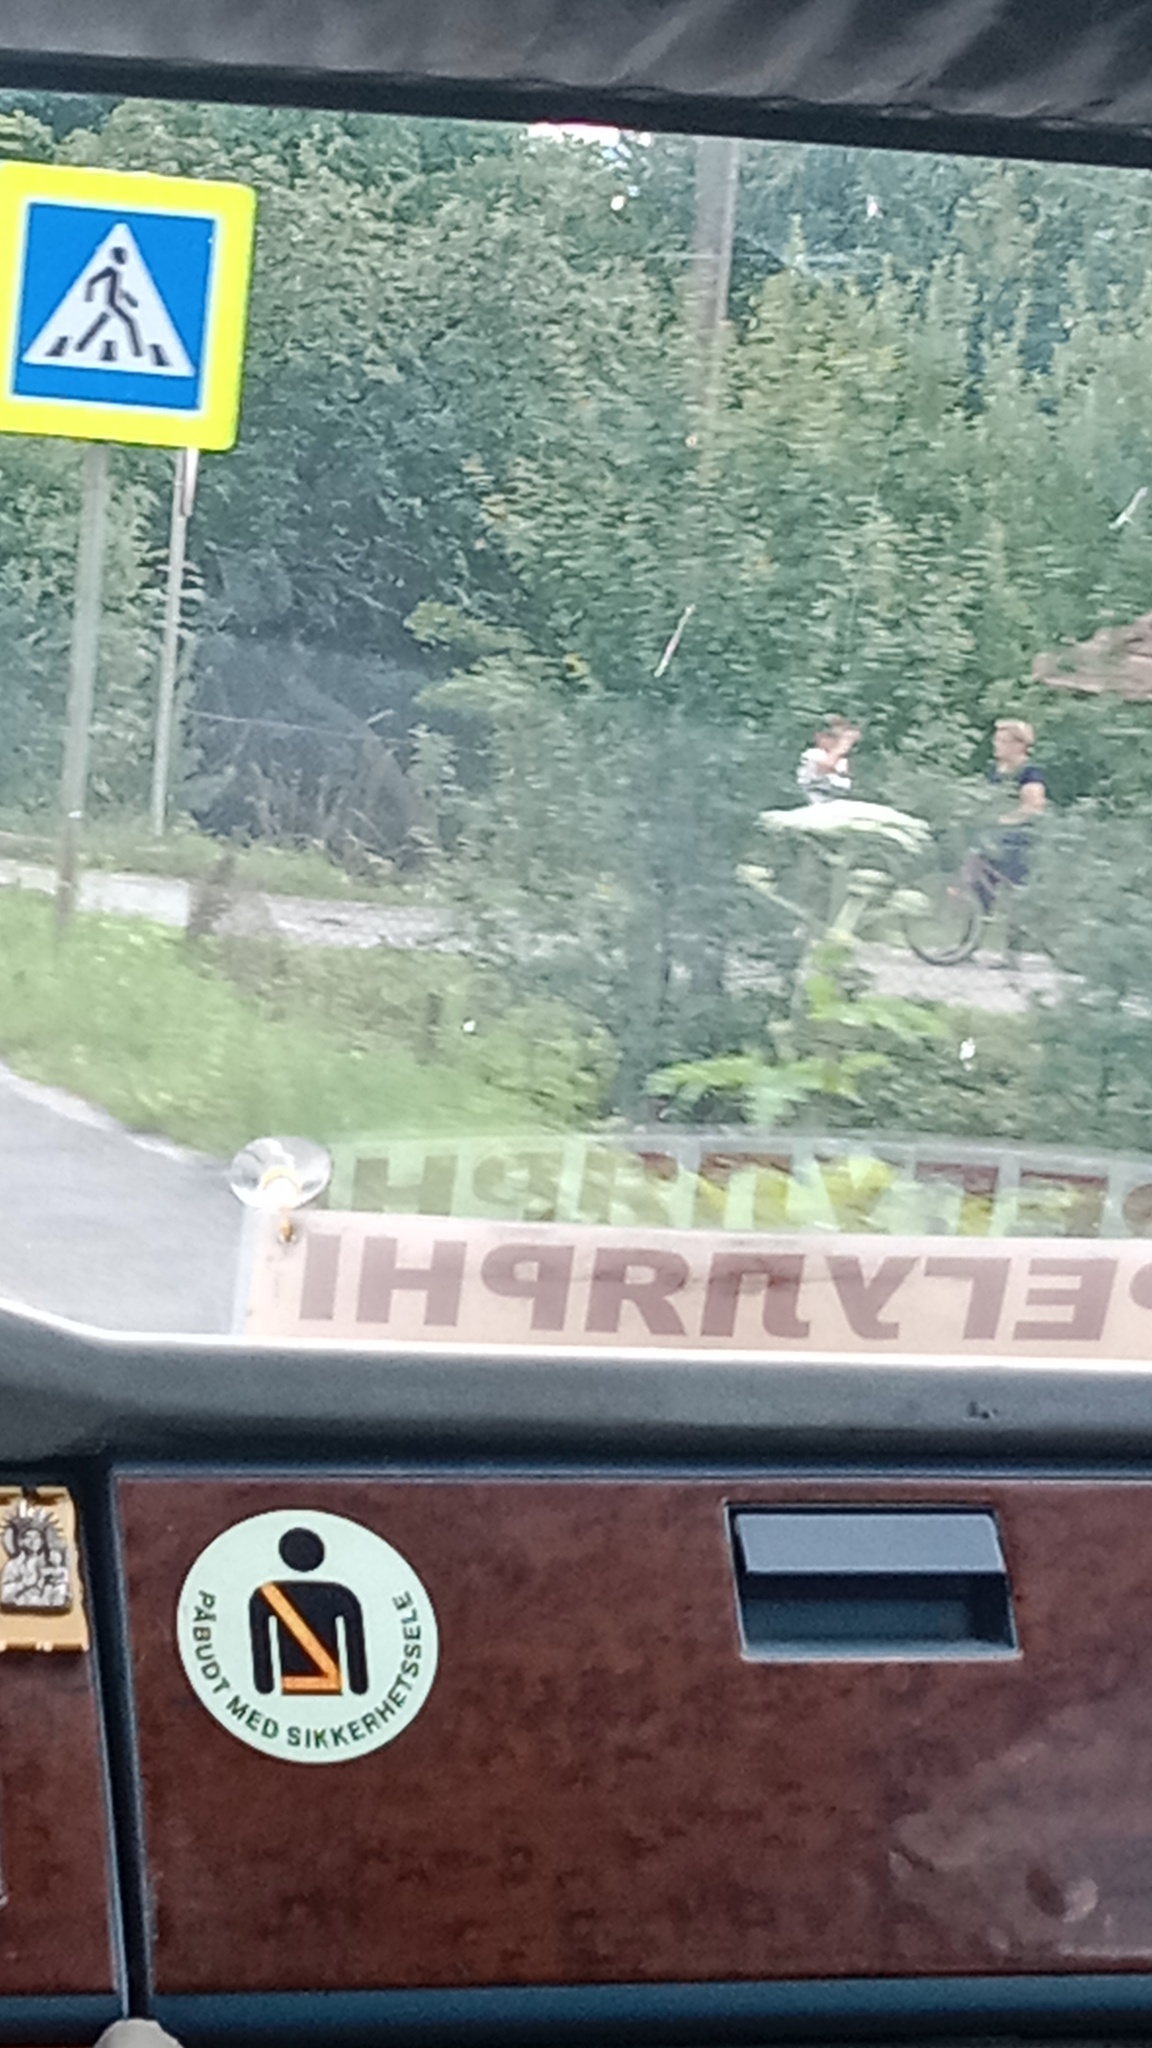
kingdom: Plantae
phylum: Tracheophyta
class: Magnoliopsida
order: Apiales
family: Apiaceae
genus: Heracleum
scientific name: Heracleum sosnowskyi
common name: Sosnowsky's hogweed
